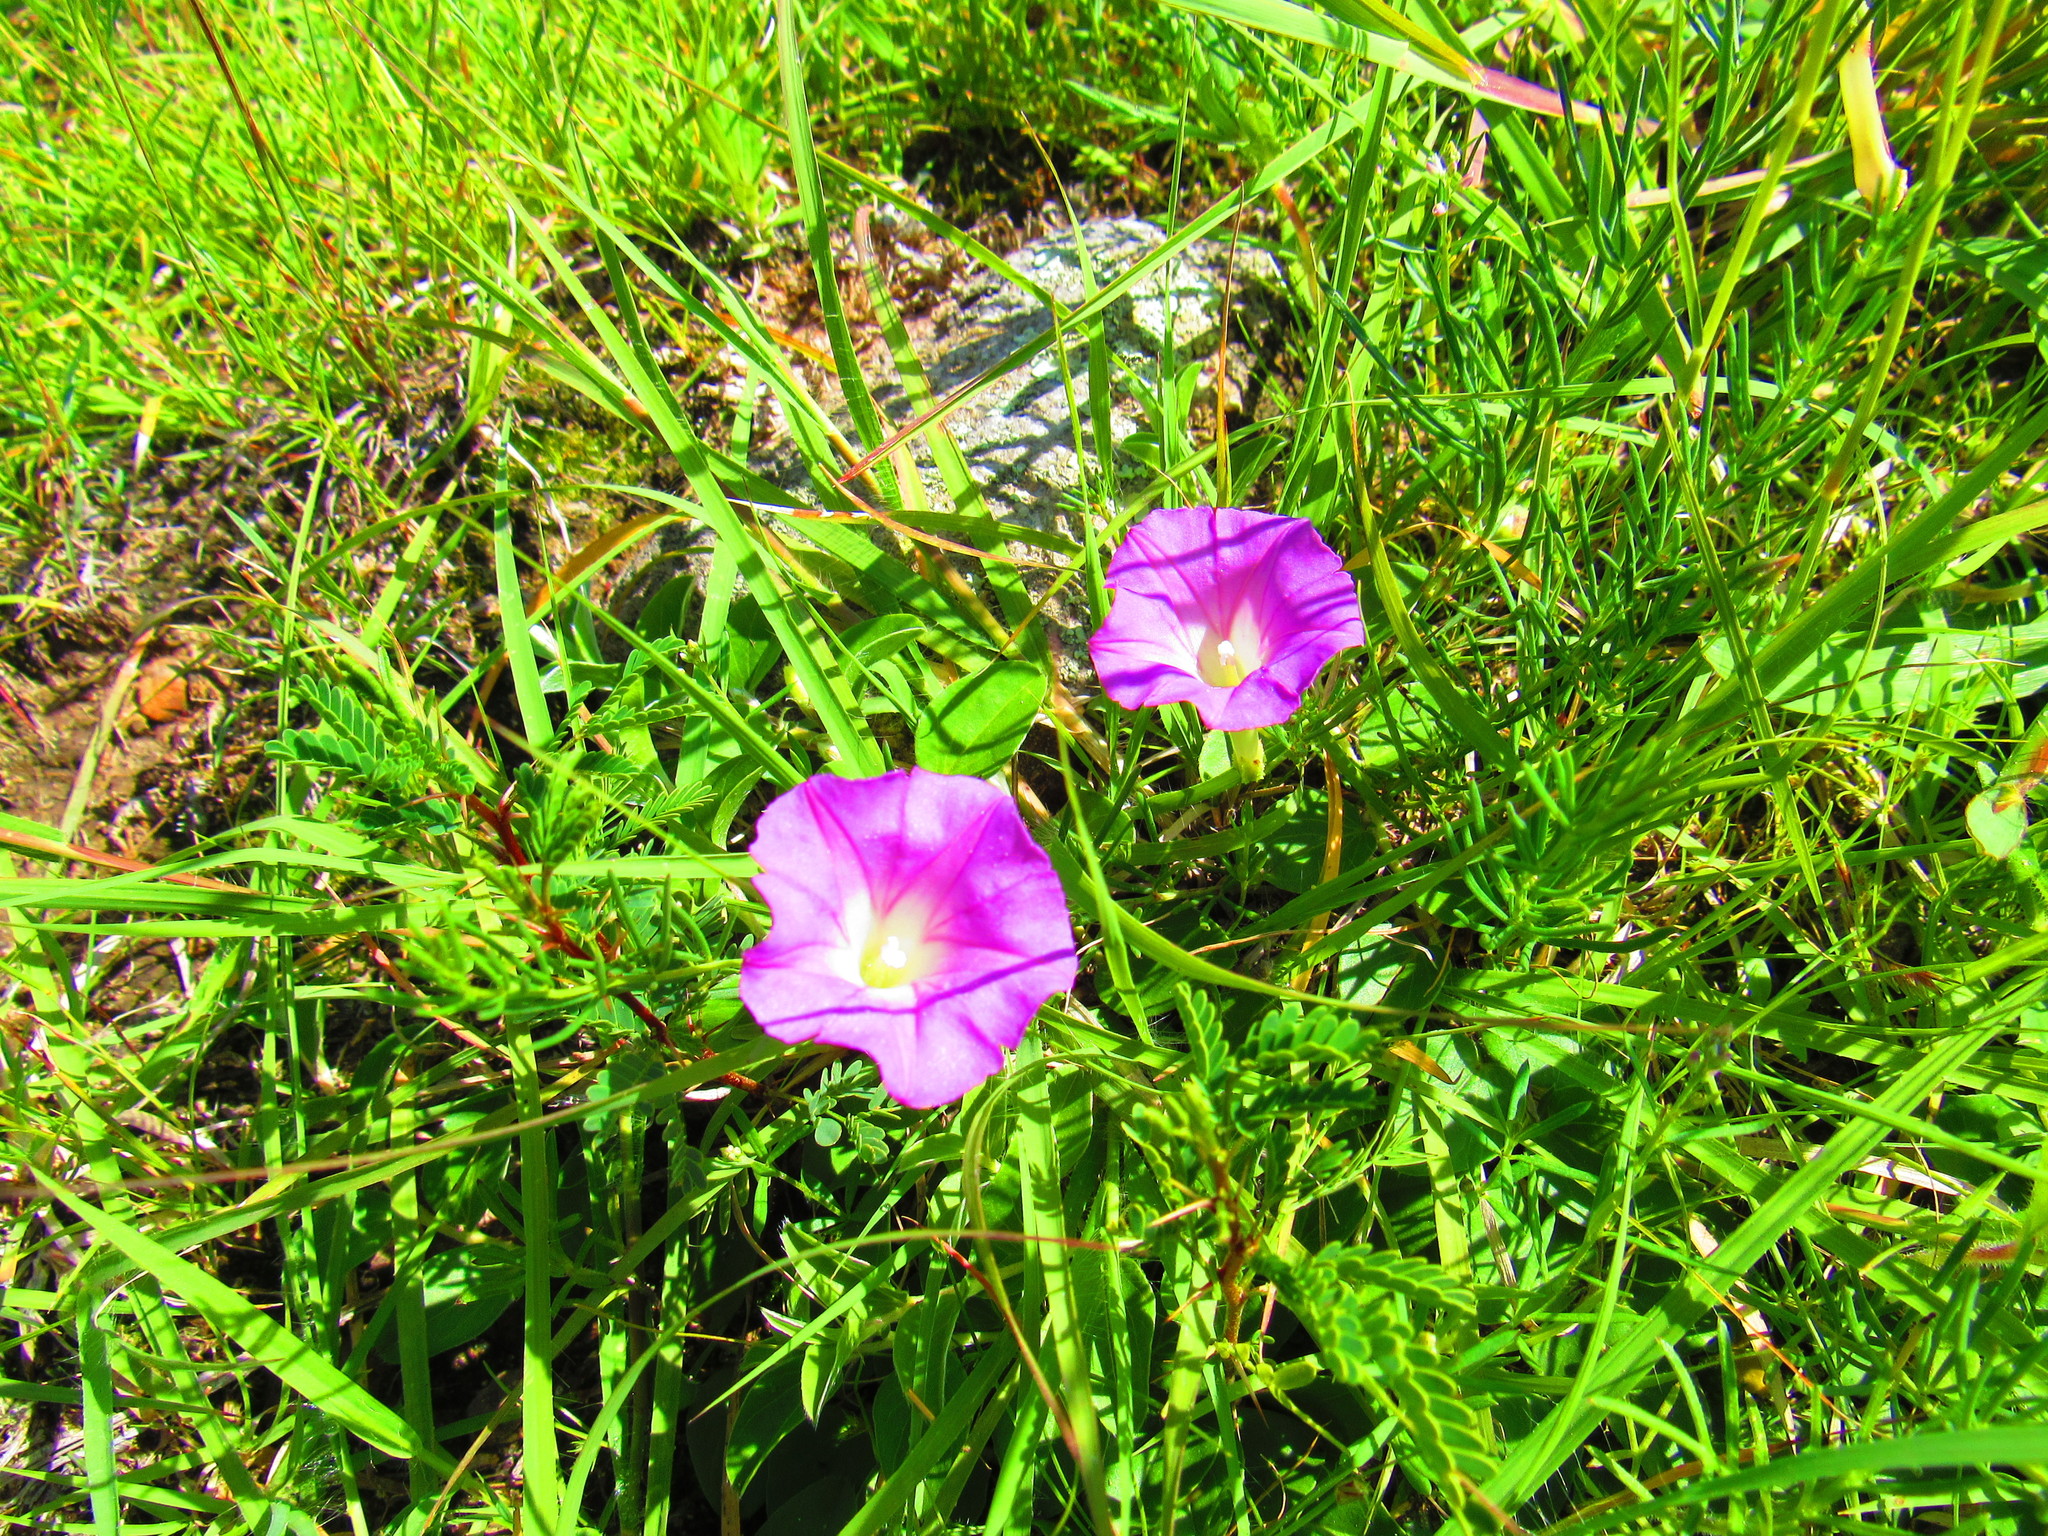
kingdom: Plantae
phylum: Tracheophyta
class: Magnoliopsida
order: Solanales
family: Convolvulaceae
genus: Ipomoea
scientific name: Ipomoea capillacea
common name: Purple morning-glory
